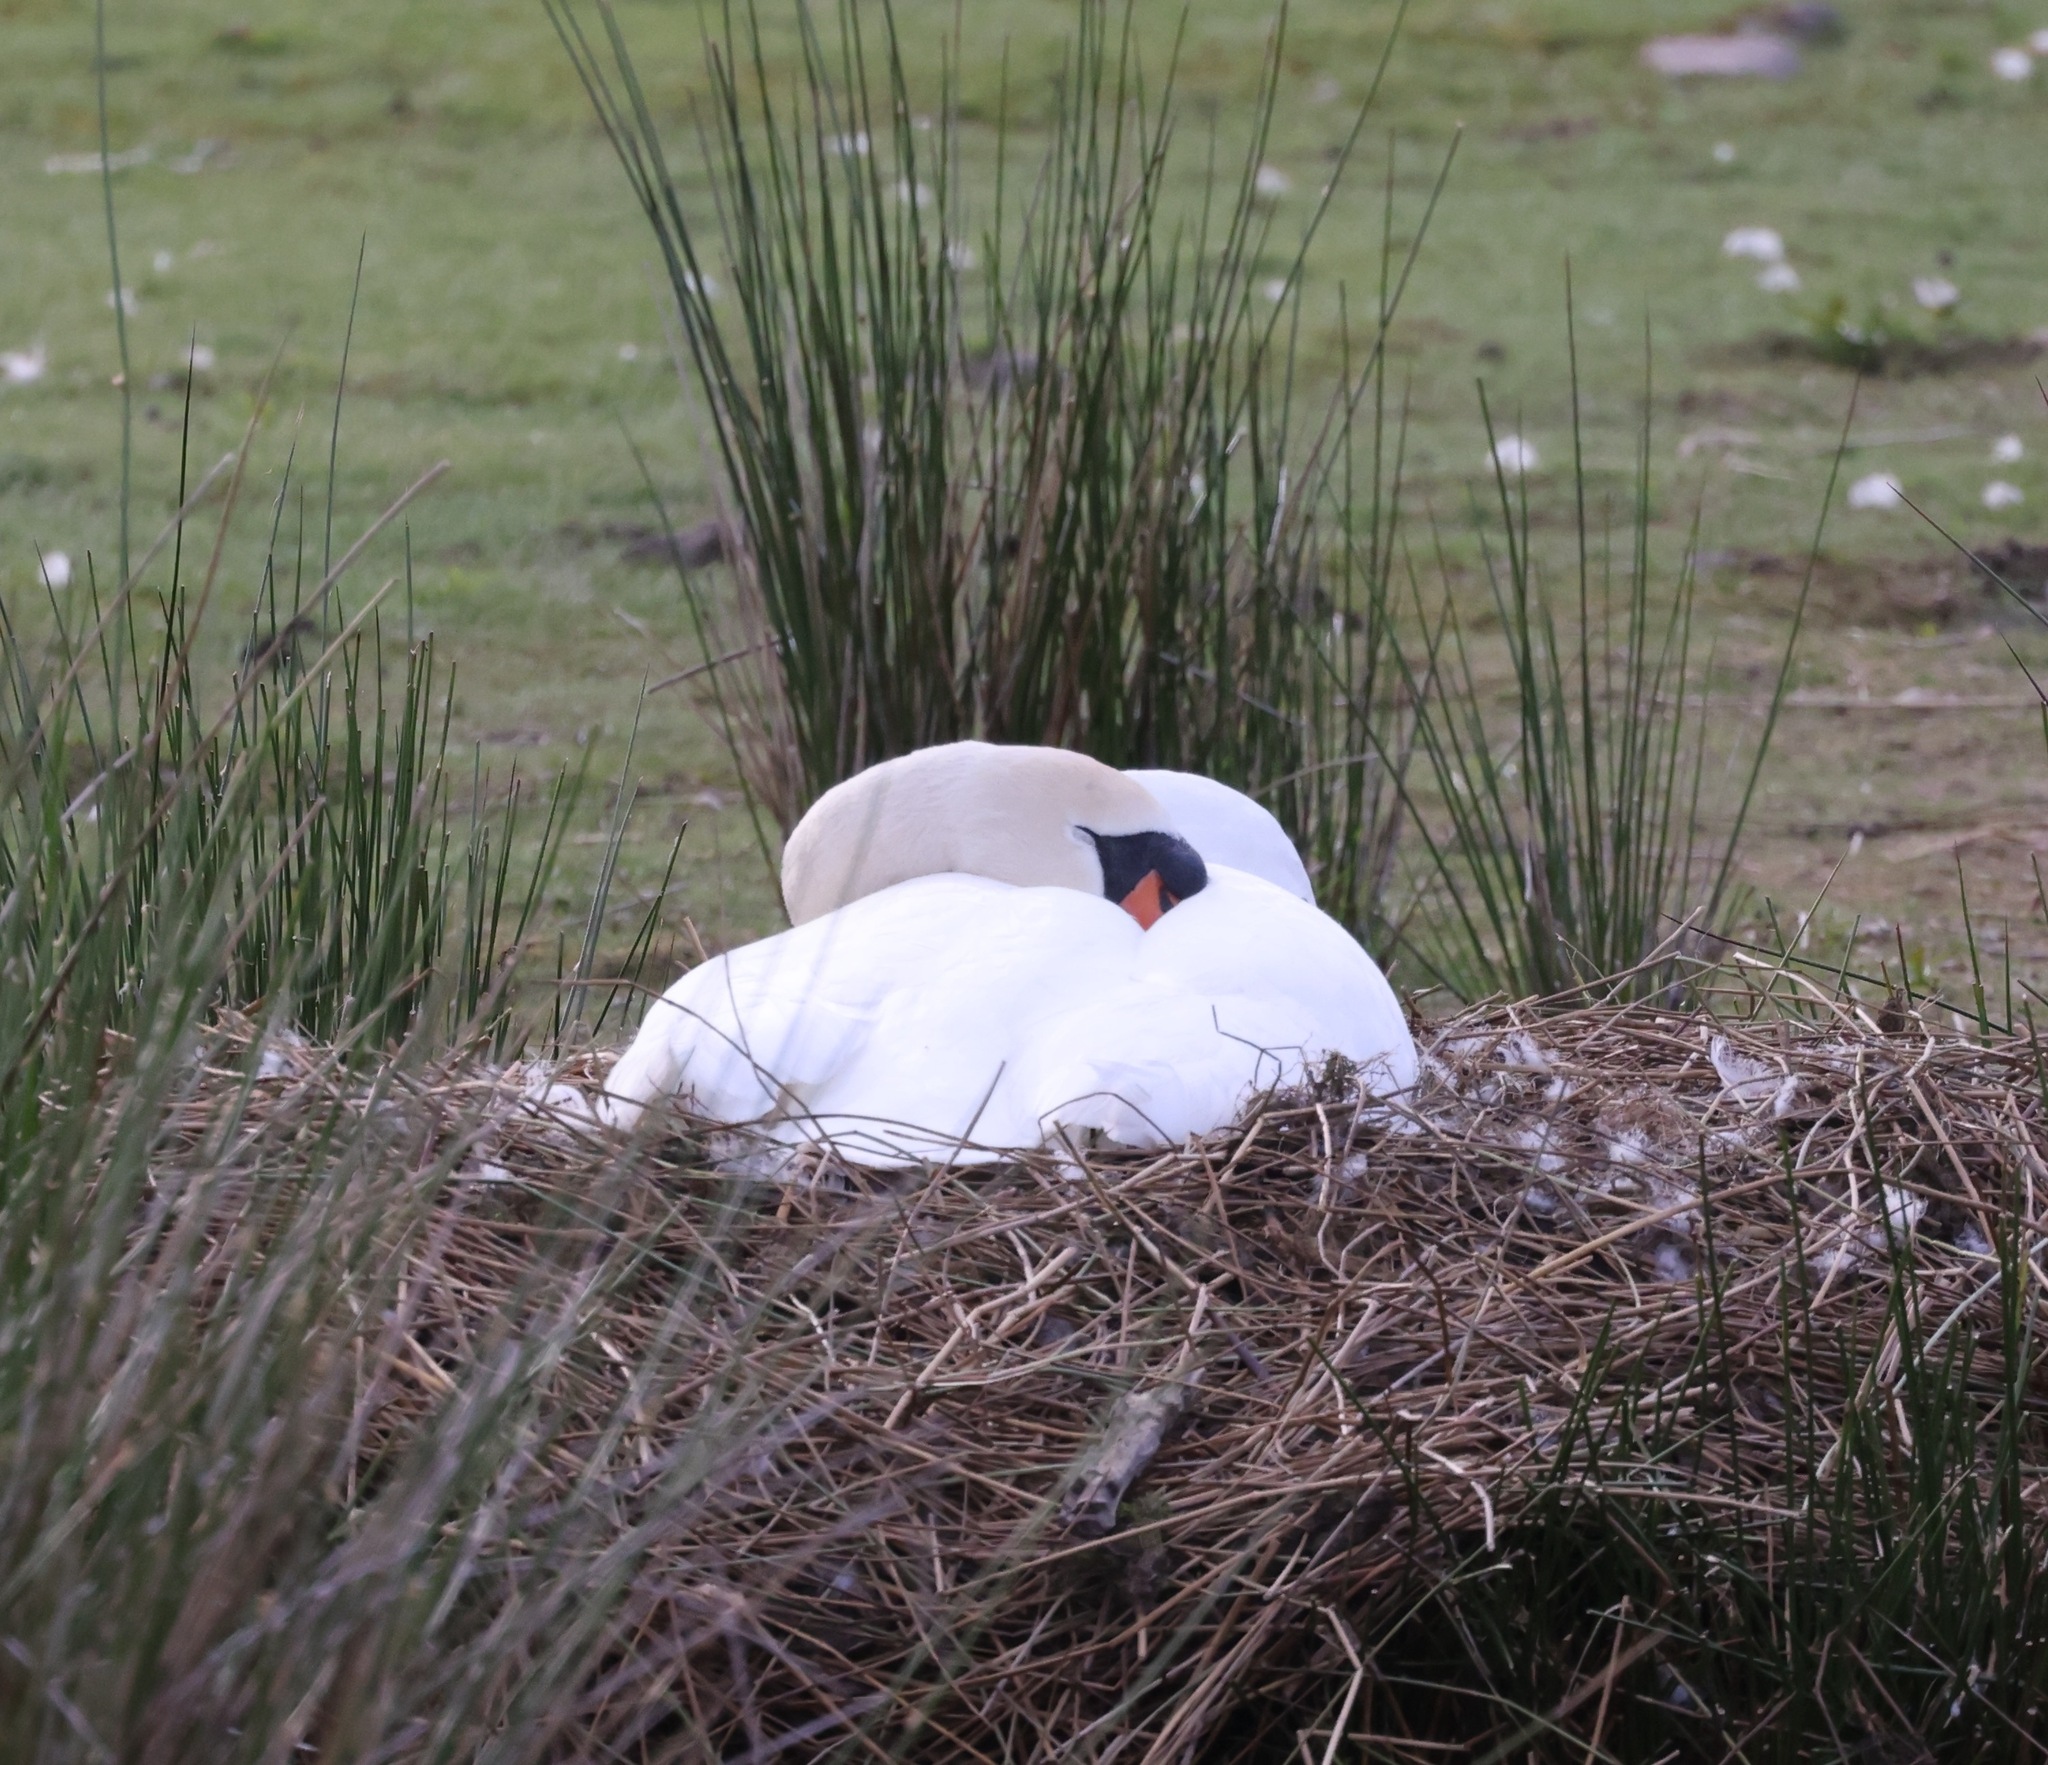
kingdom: Animalia
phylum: Chordata
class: Aves
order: Anseriformes
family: Anatidae
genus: Cygnus
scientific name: Cygnus olor
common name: Mute swan
